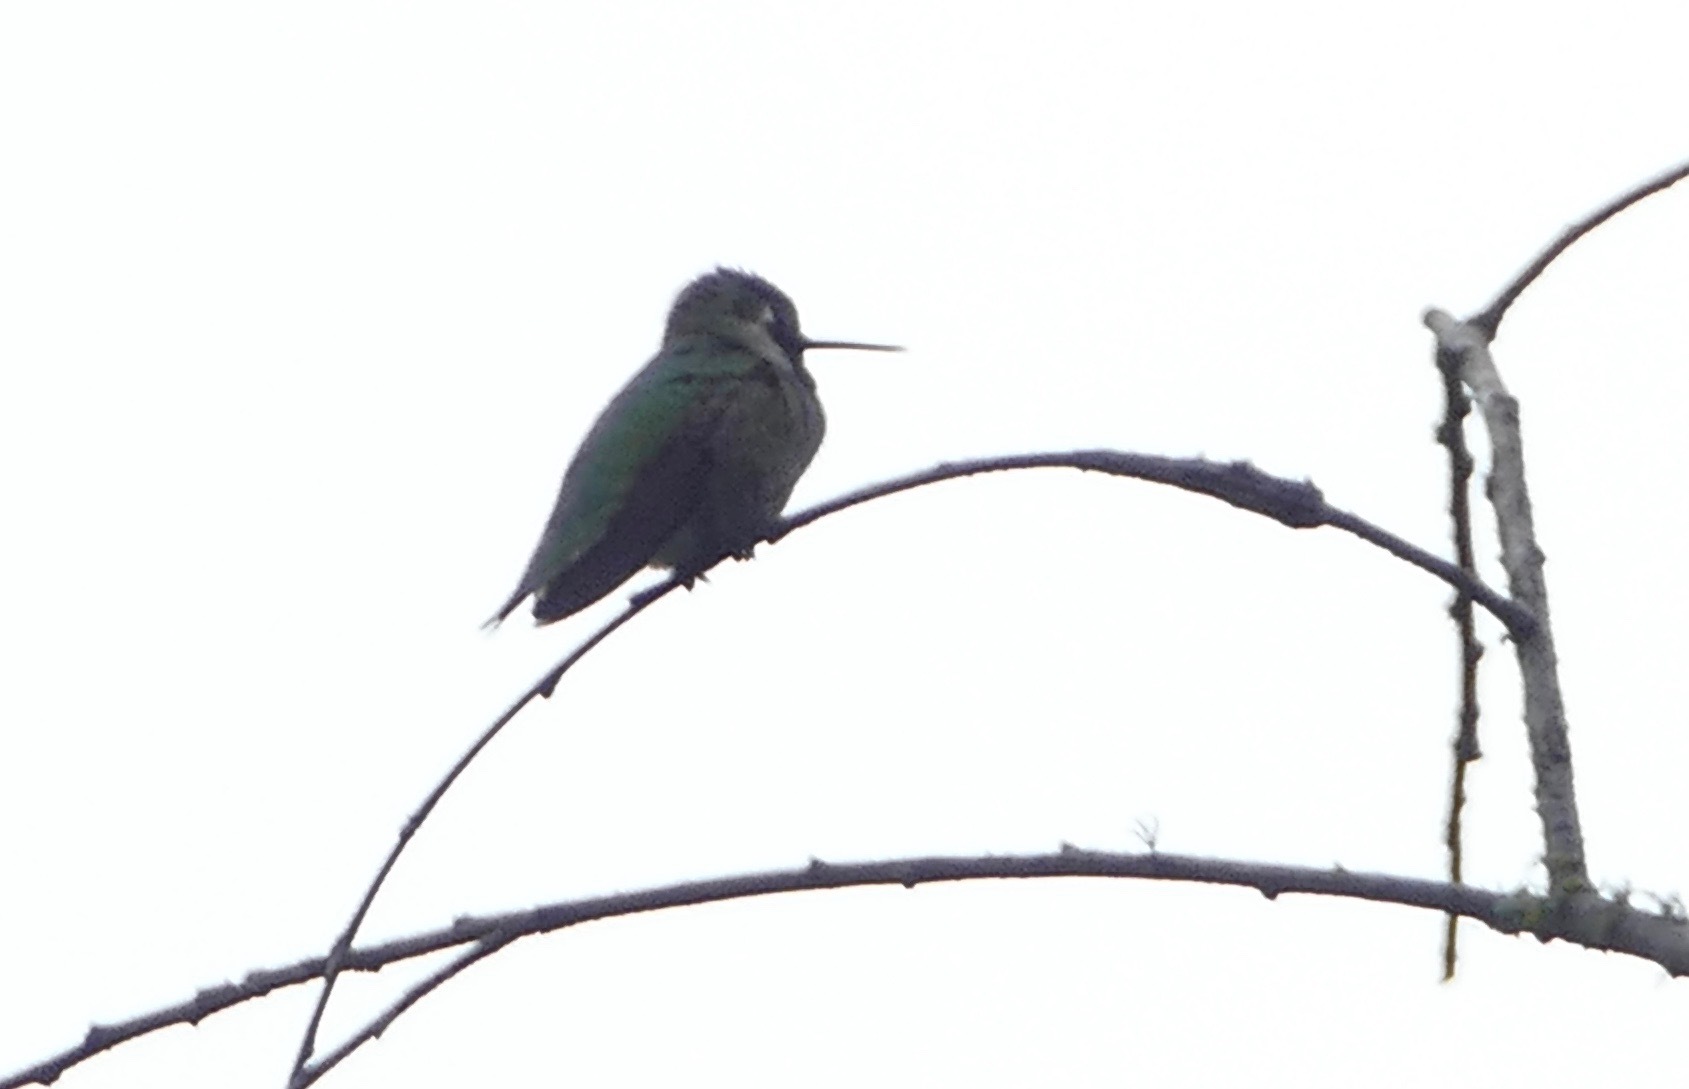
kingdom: Animalia
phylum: Chordata
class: Aves
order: Apodiformes
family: Trochilidae
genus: Calypte
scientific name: Calypte anna
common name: Anna's hummingbird
